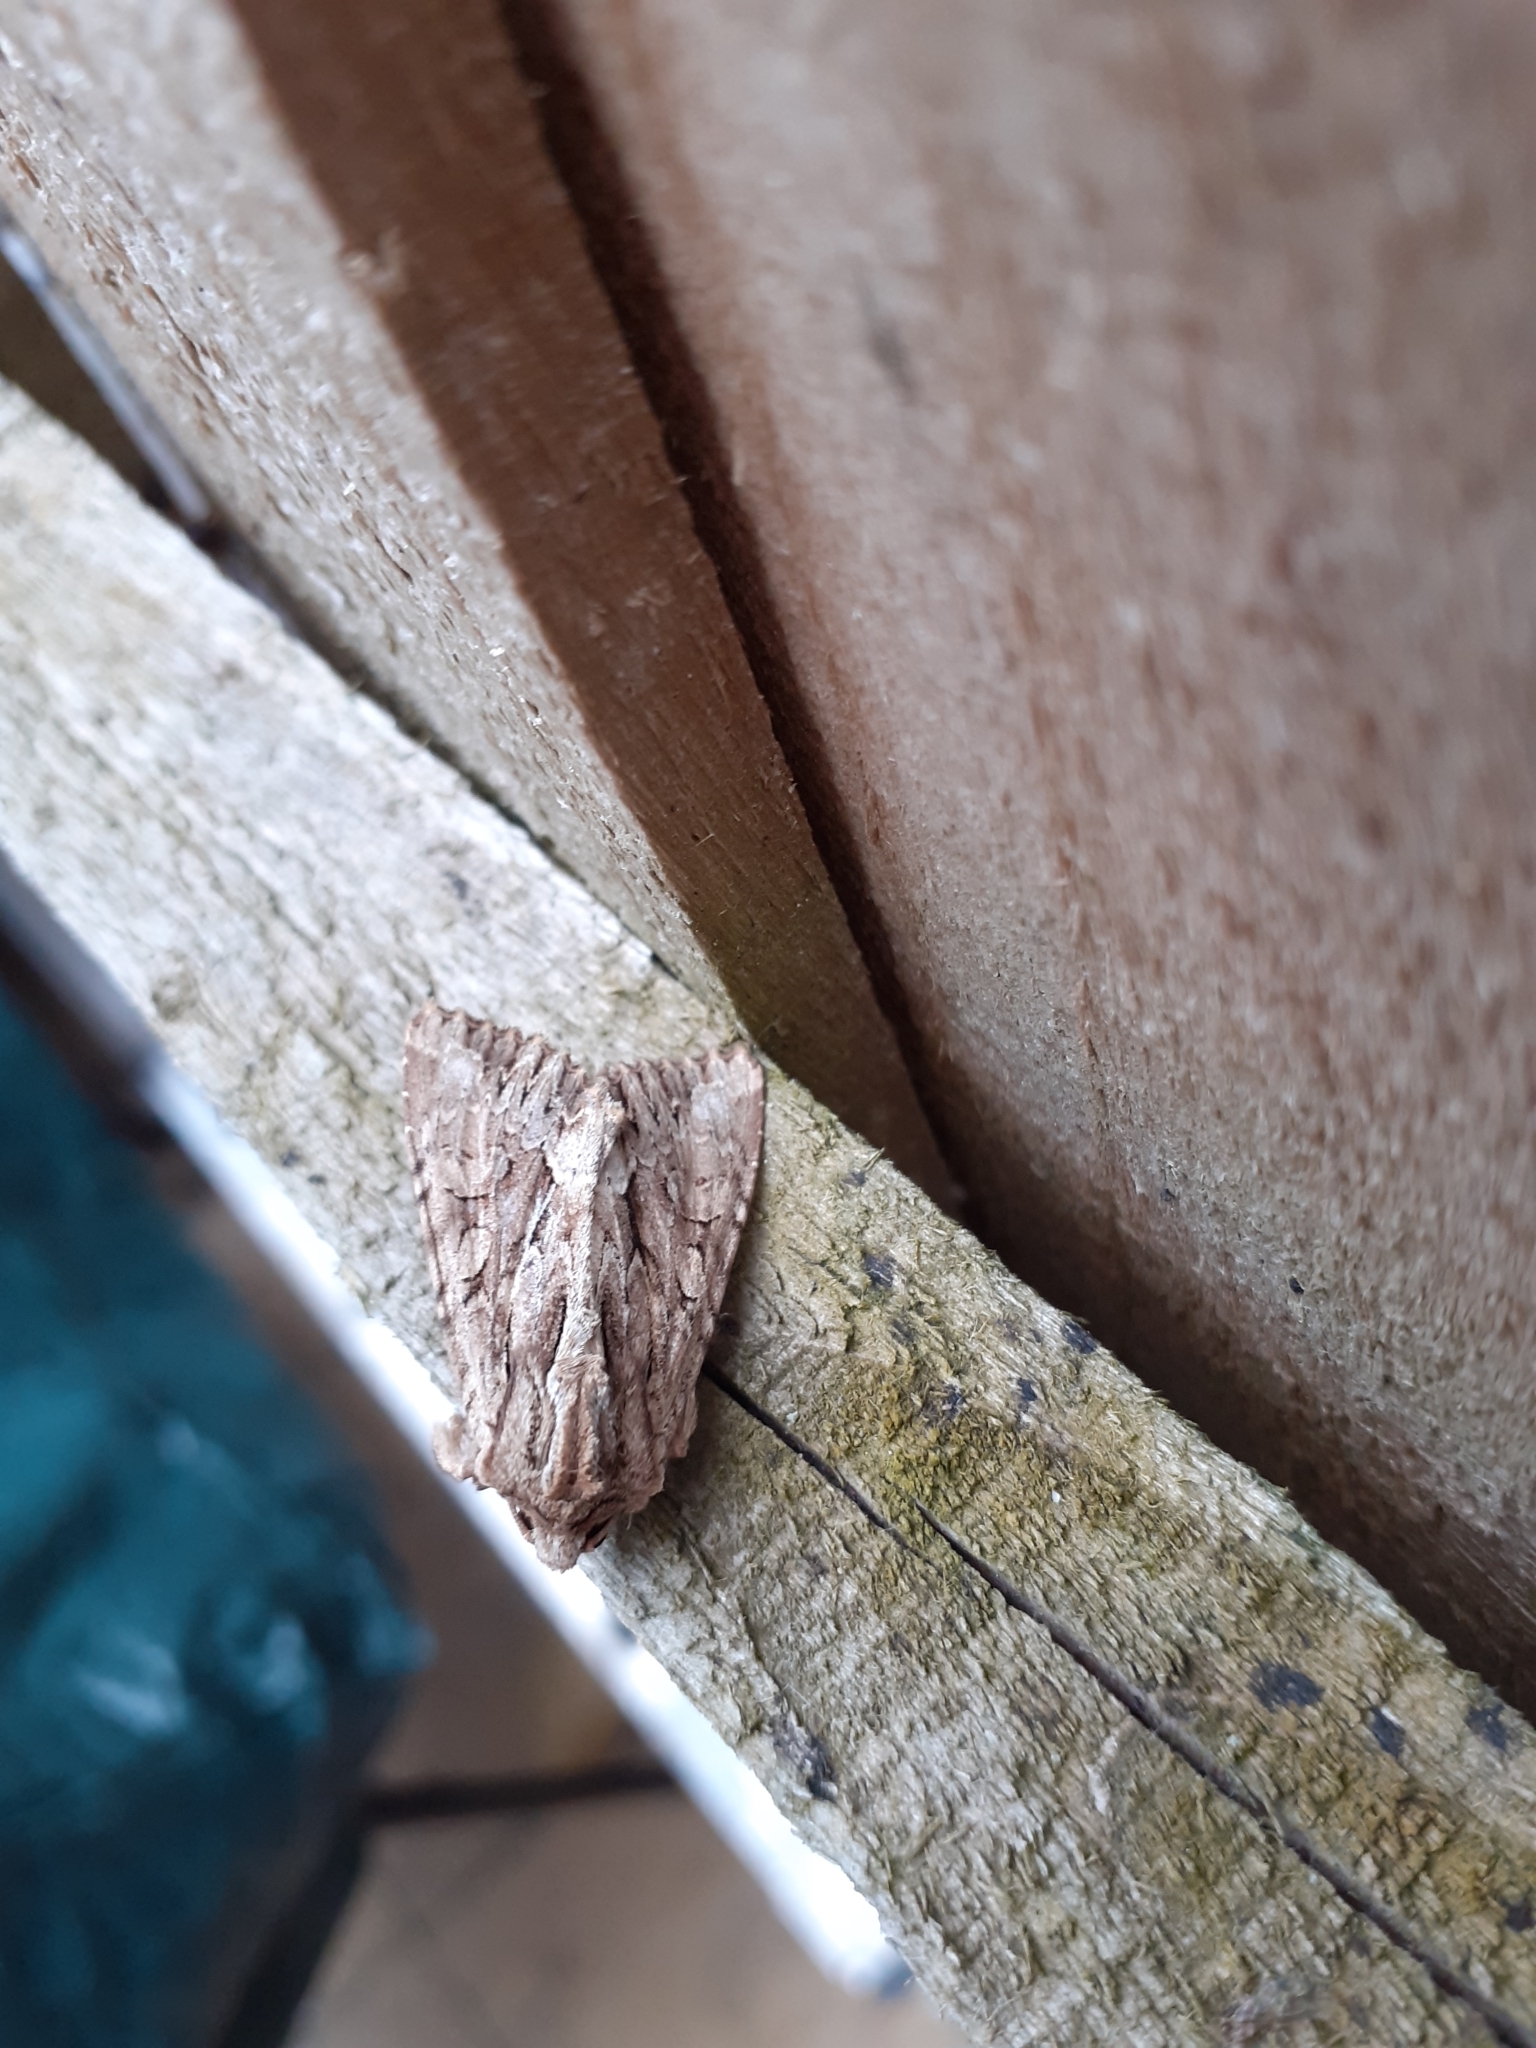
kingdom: Animalia
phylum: Arthropoda
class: Insecta
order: Lepidoptera
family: Noctuidae
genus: Apamea
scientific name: Apamea monoglypha
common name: Dark arches
